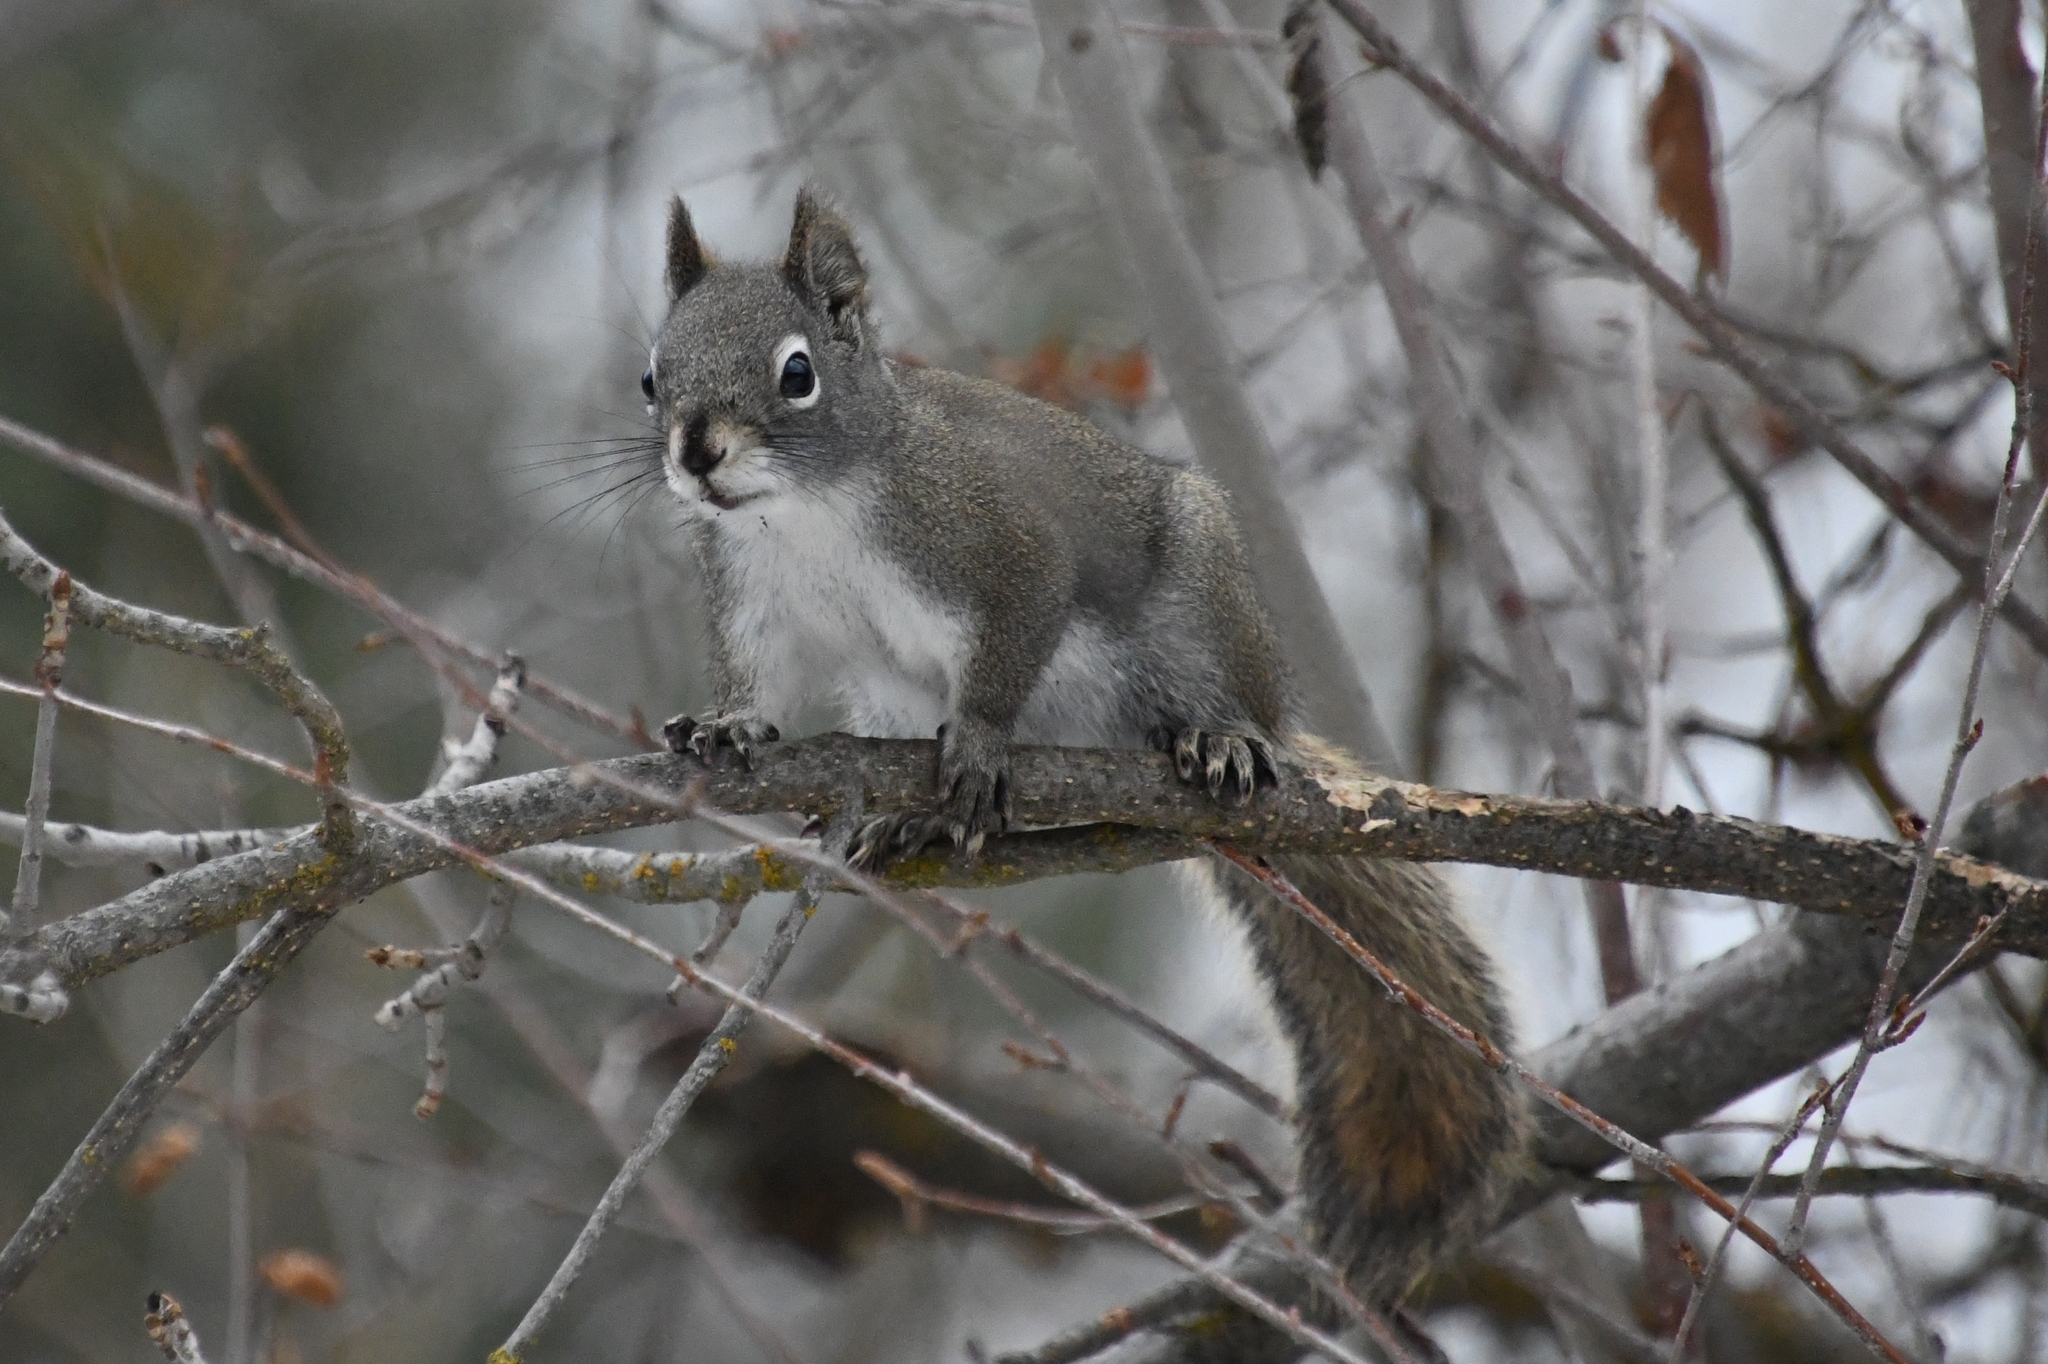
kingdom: Animalia
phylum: Chordata
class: Mammalia
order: Rodentia
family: Sciuridae
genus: Tamiasciurus
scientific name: Tamiasciurus hudsonicus
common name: Red squirrel
